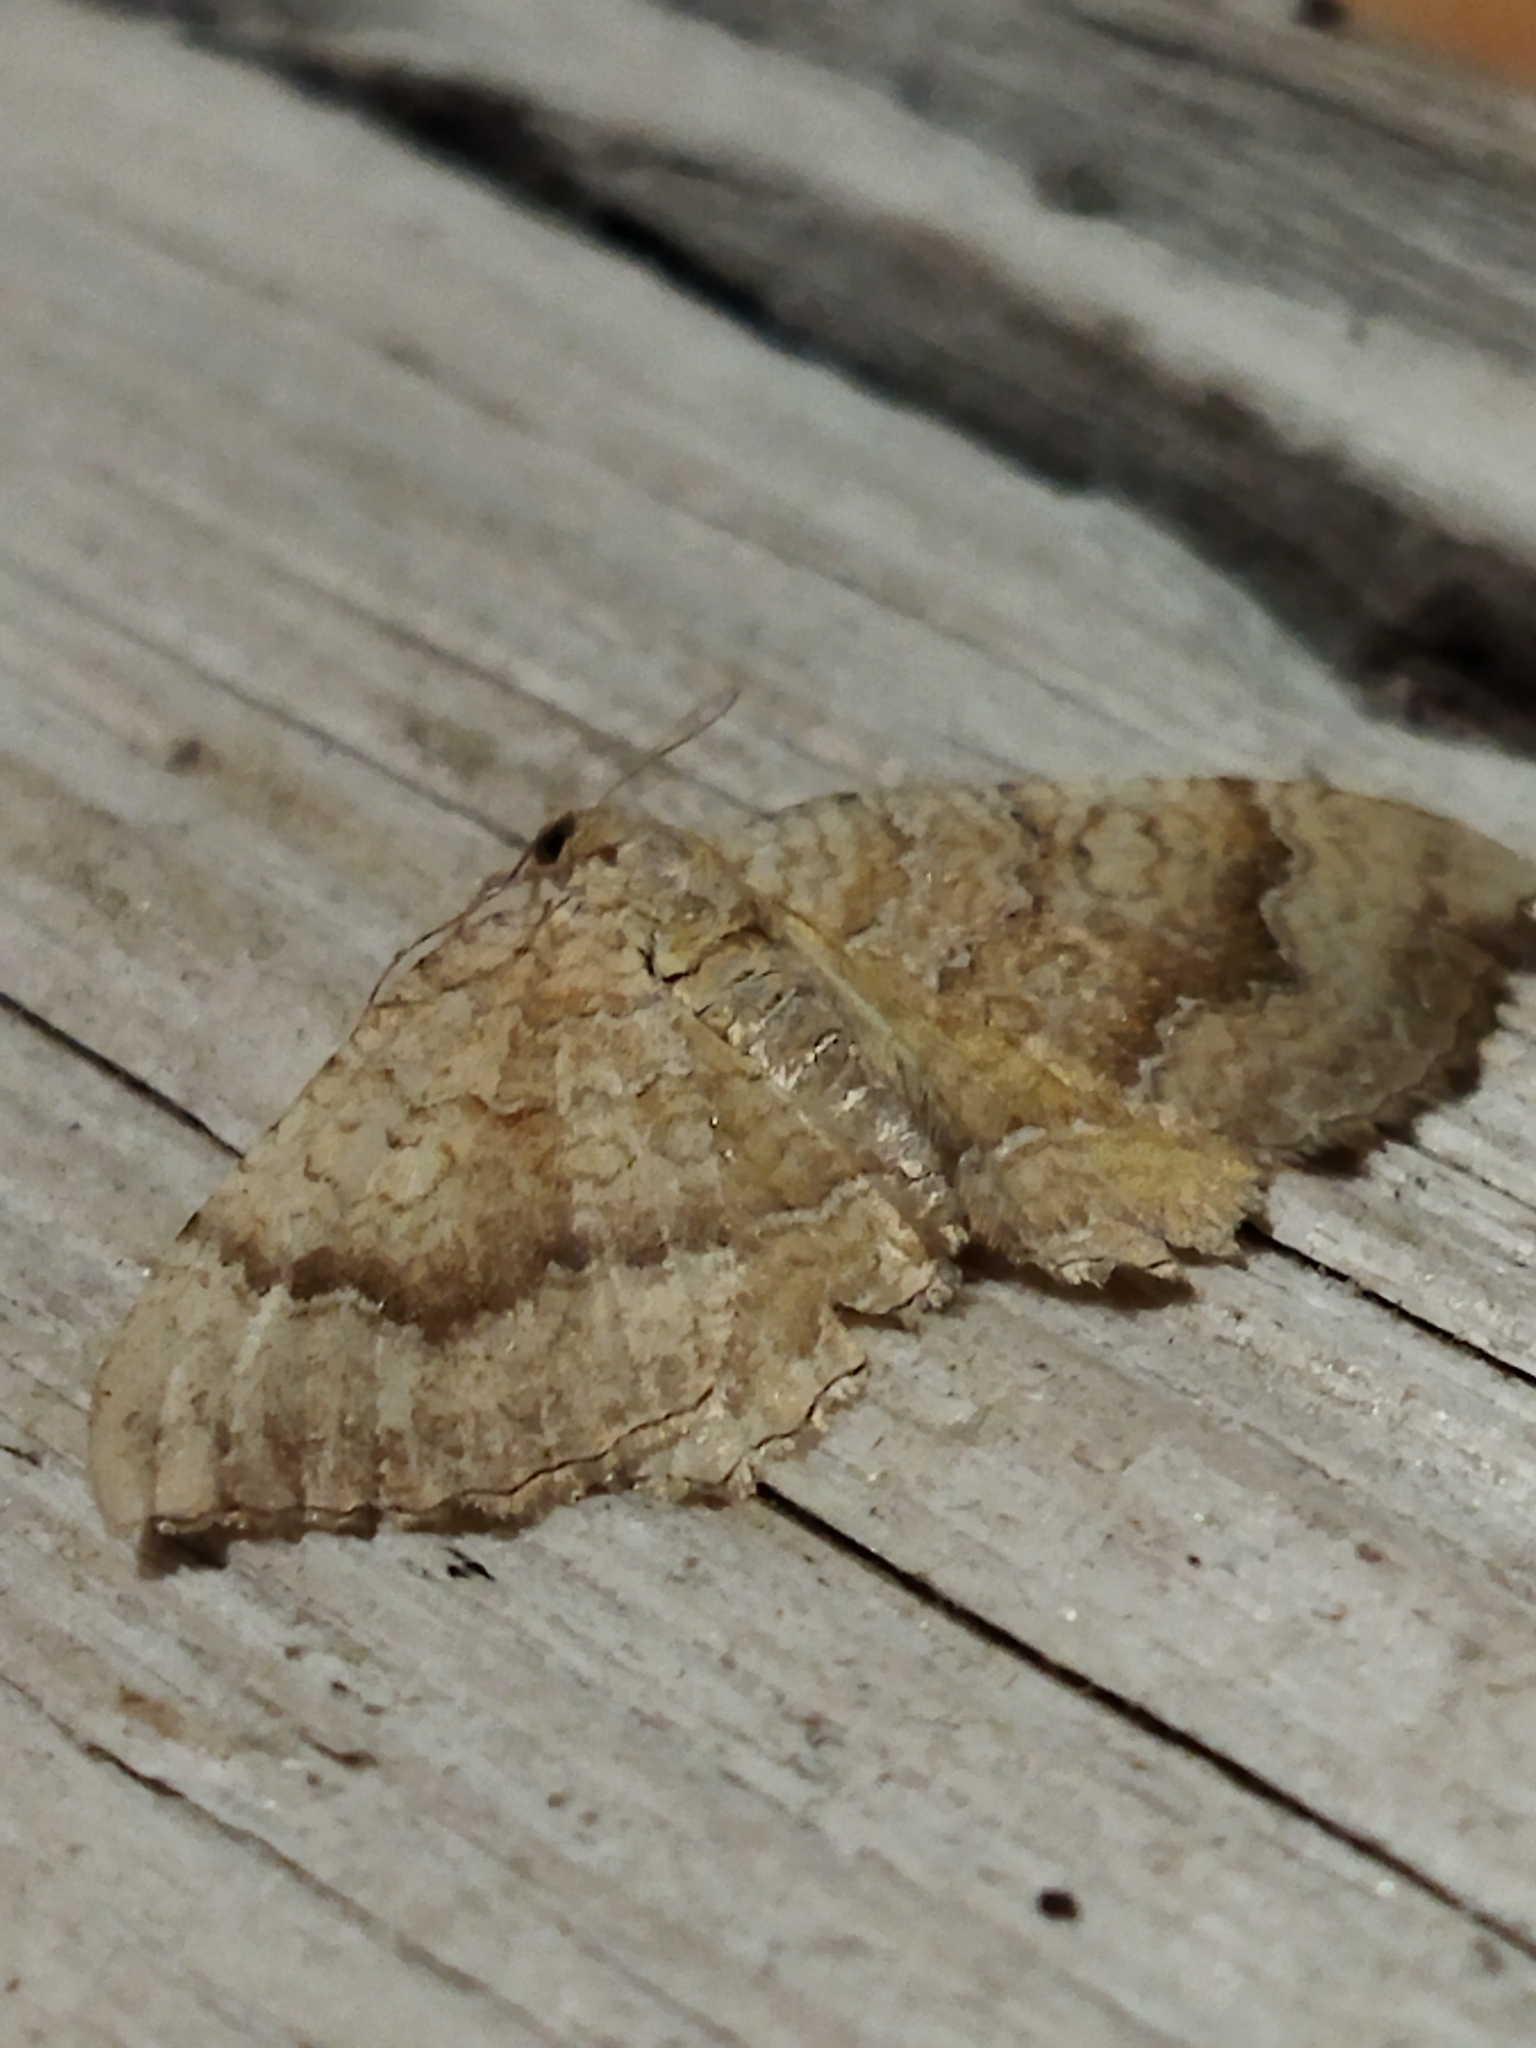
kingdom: Animalia
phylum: Arthropoda
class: Insecta
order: Lepidoptera
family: Geometridae
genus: Camptogramma
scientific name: Camptogramma bilineata
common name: Yellow shell
